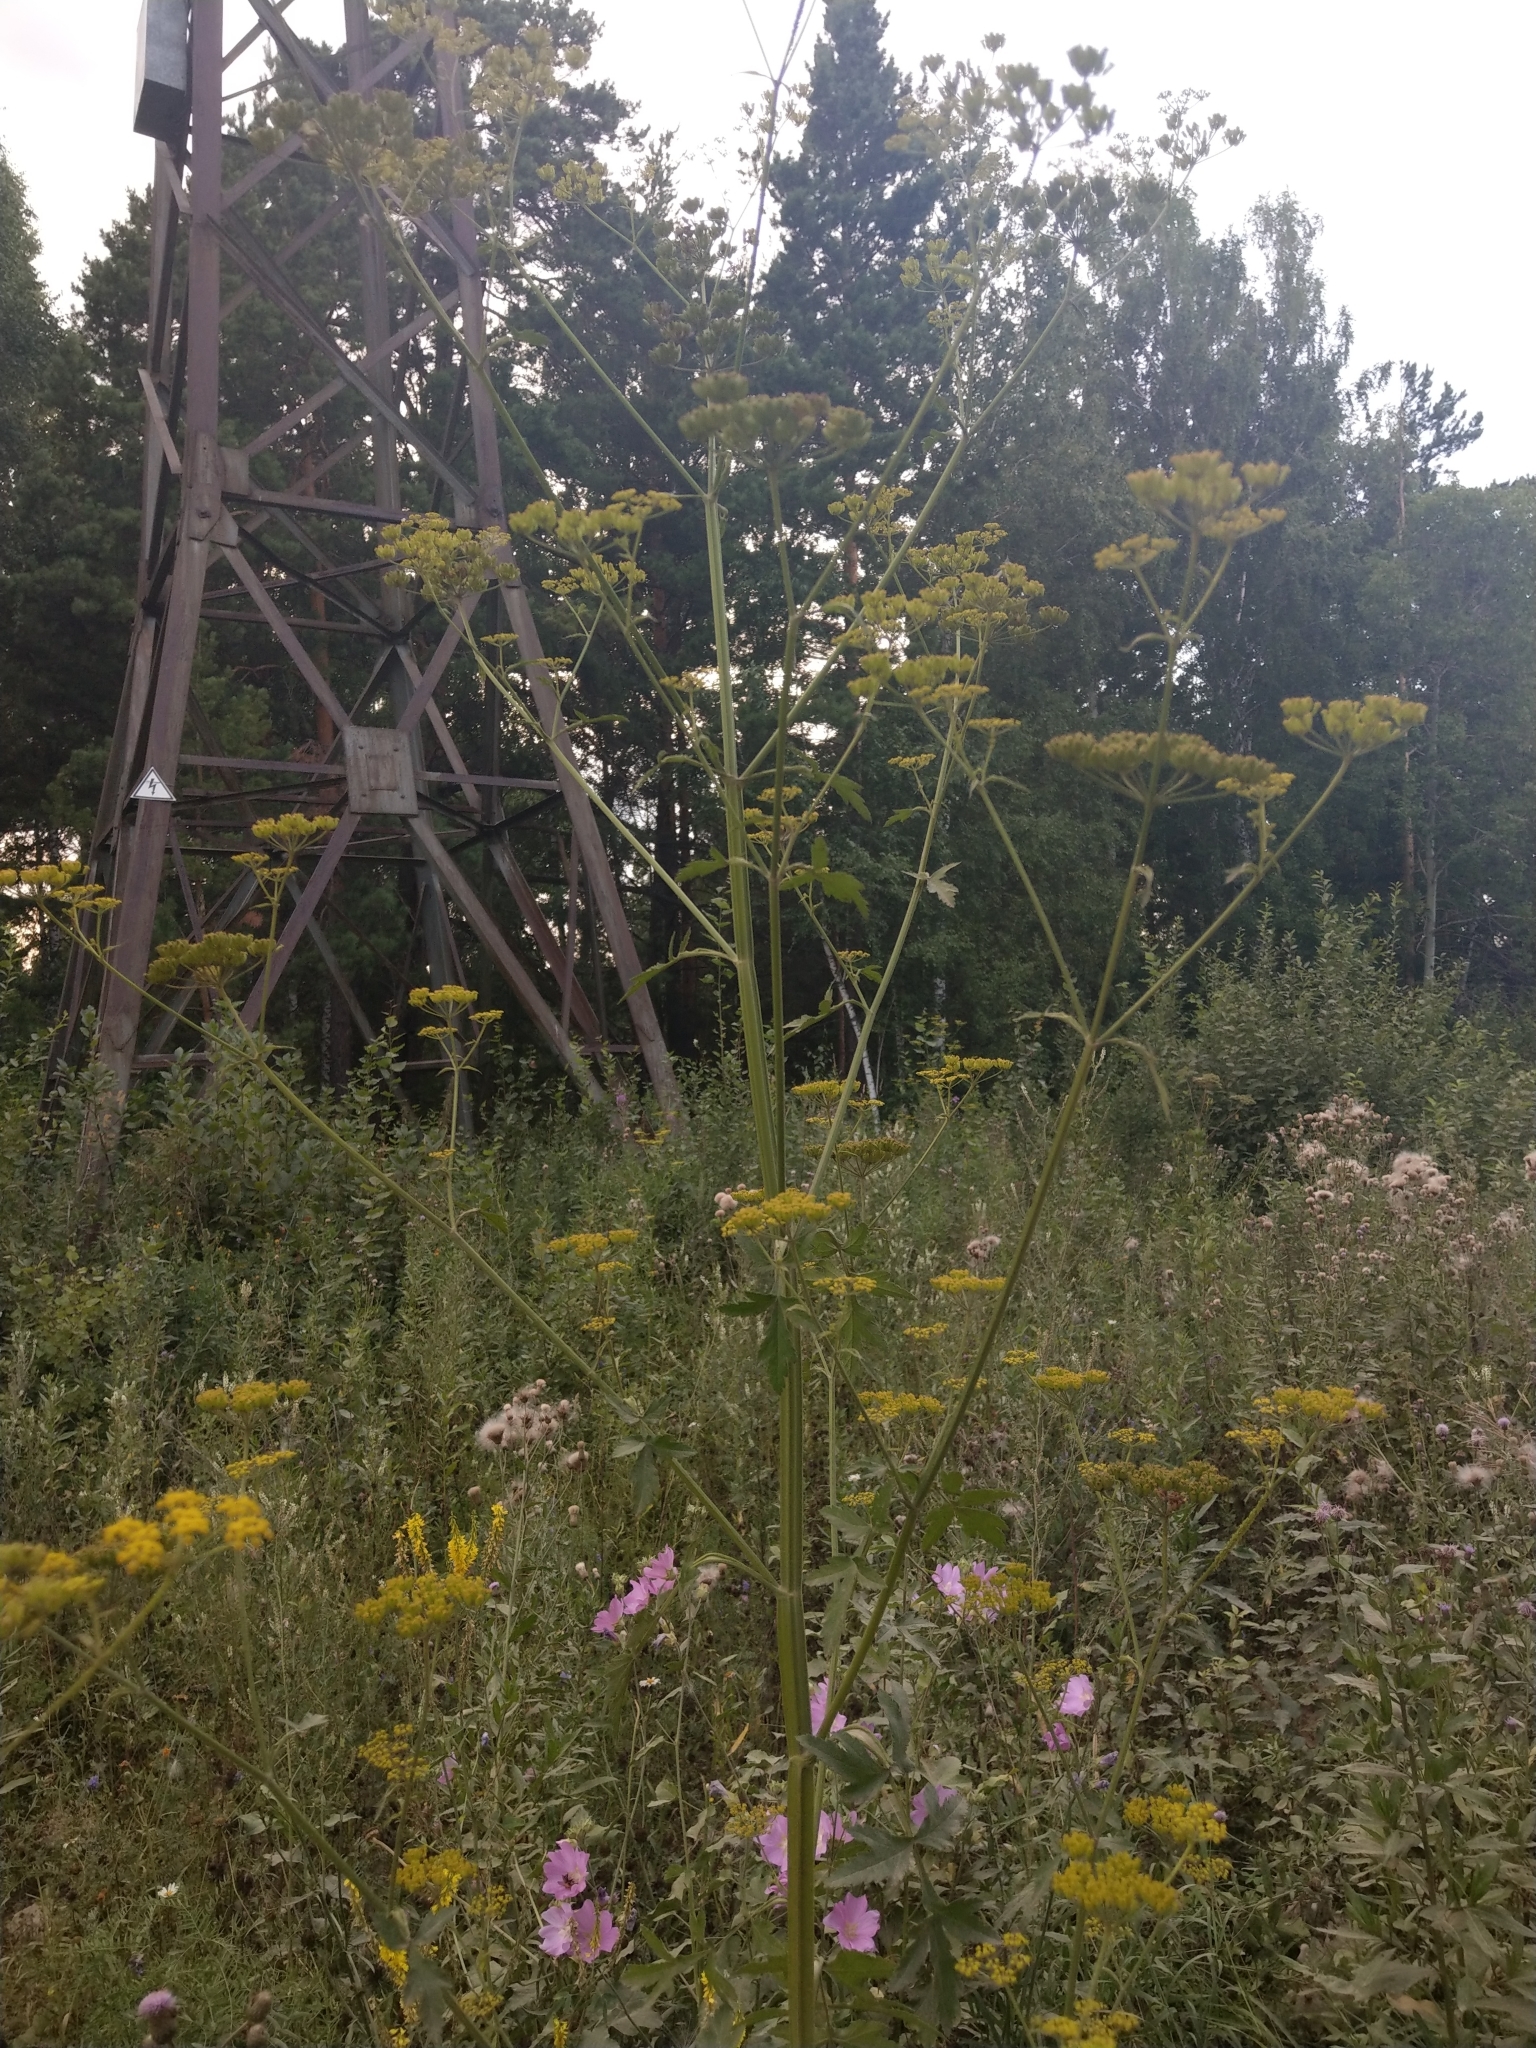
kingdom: Plantae
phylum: Tracheophyta
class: Magnoliopsida
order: Apiales
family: Apiaceae
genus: Pastinaca
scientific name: Pastinaca sativa
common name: Wild parsnip
